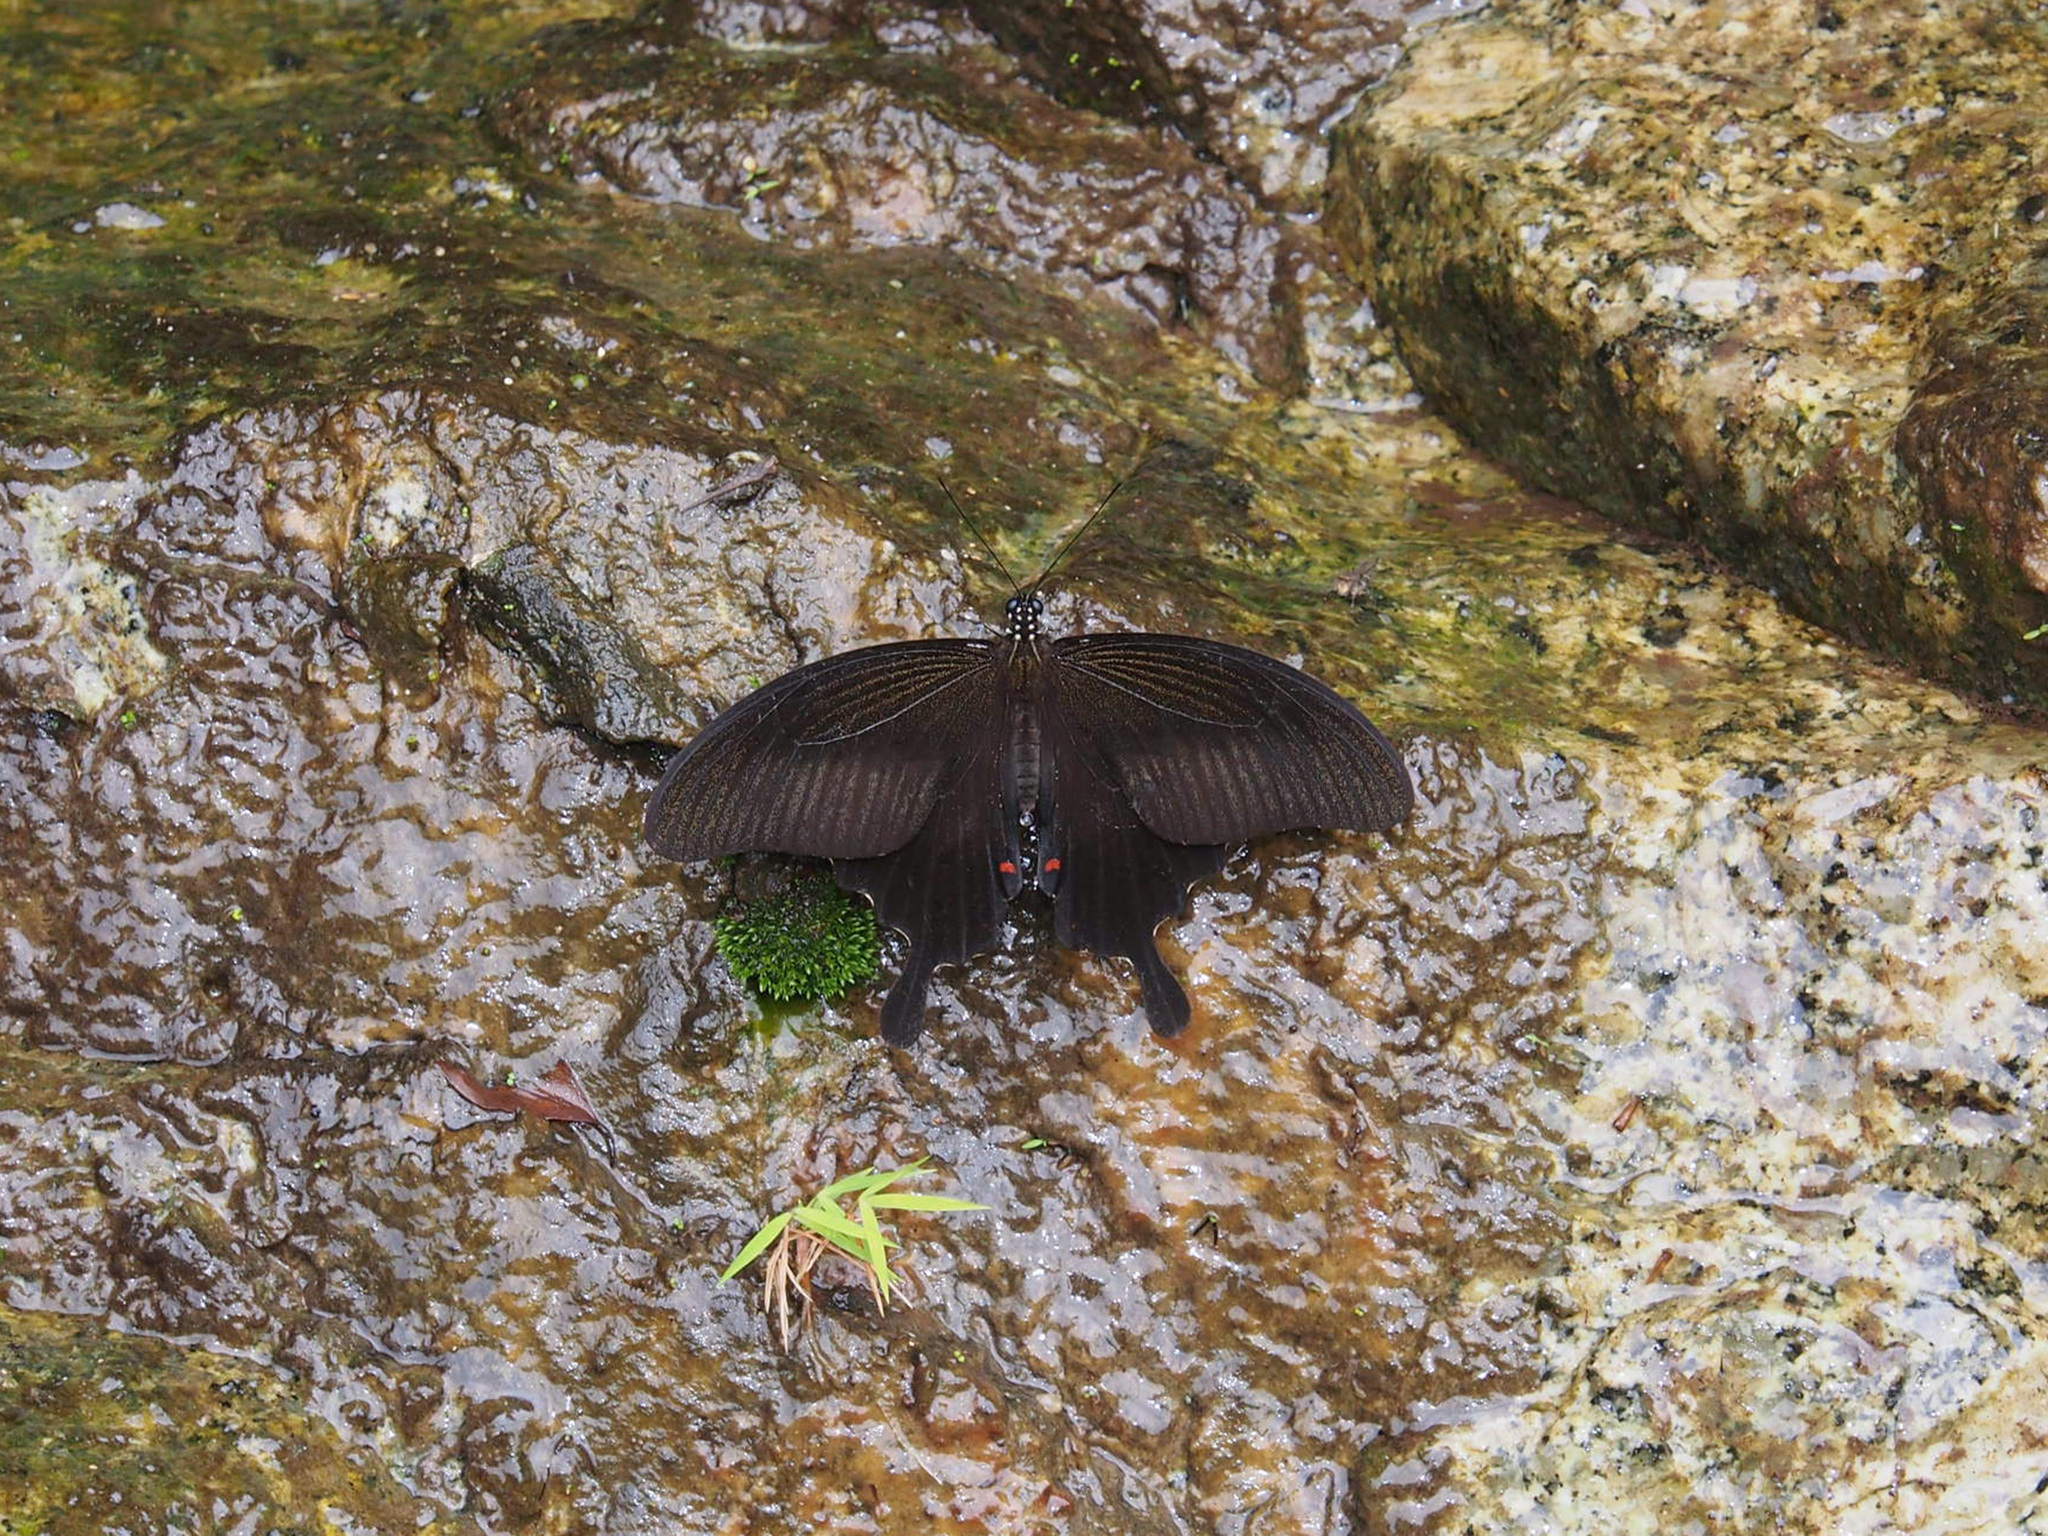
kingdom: Animalia
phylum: Arthropoda
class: Insecta
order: Lepidoptera
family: Papilionidae
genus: Papilio
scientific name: Papilio helenus
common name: Red helen
